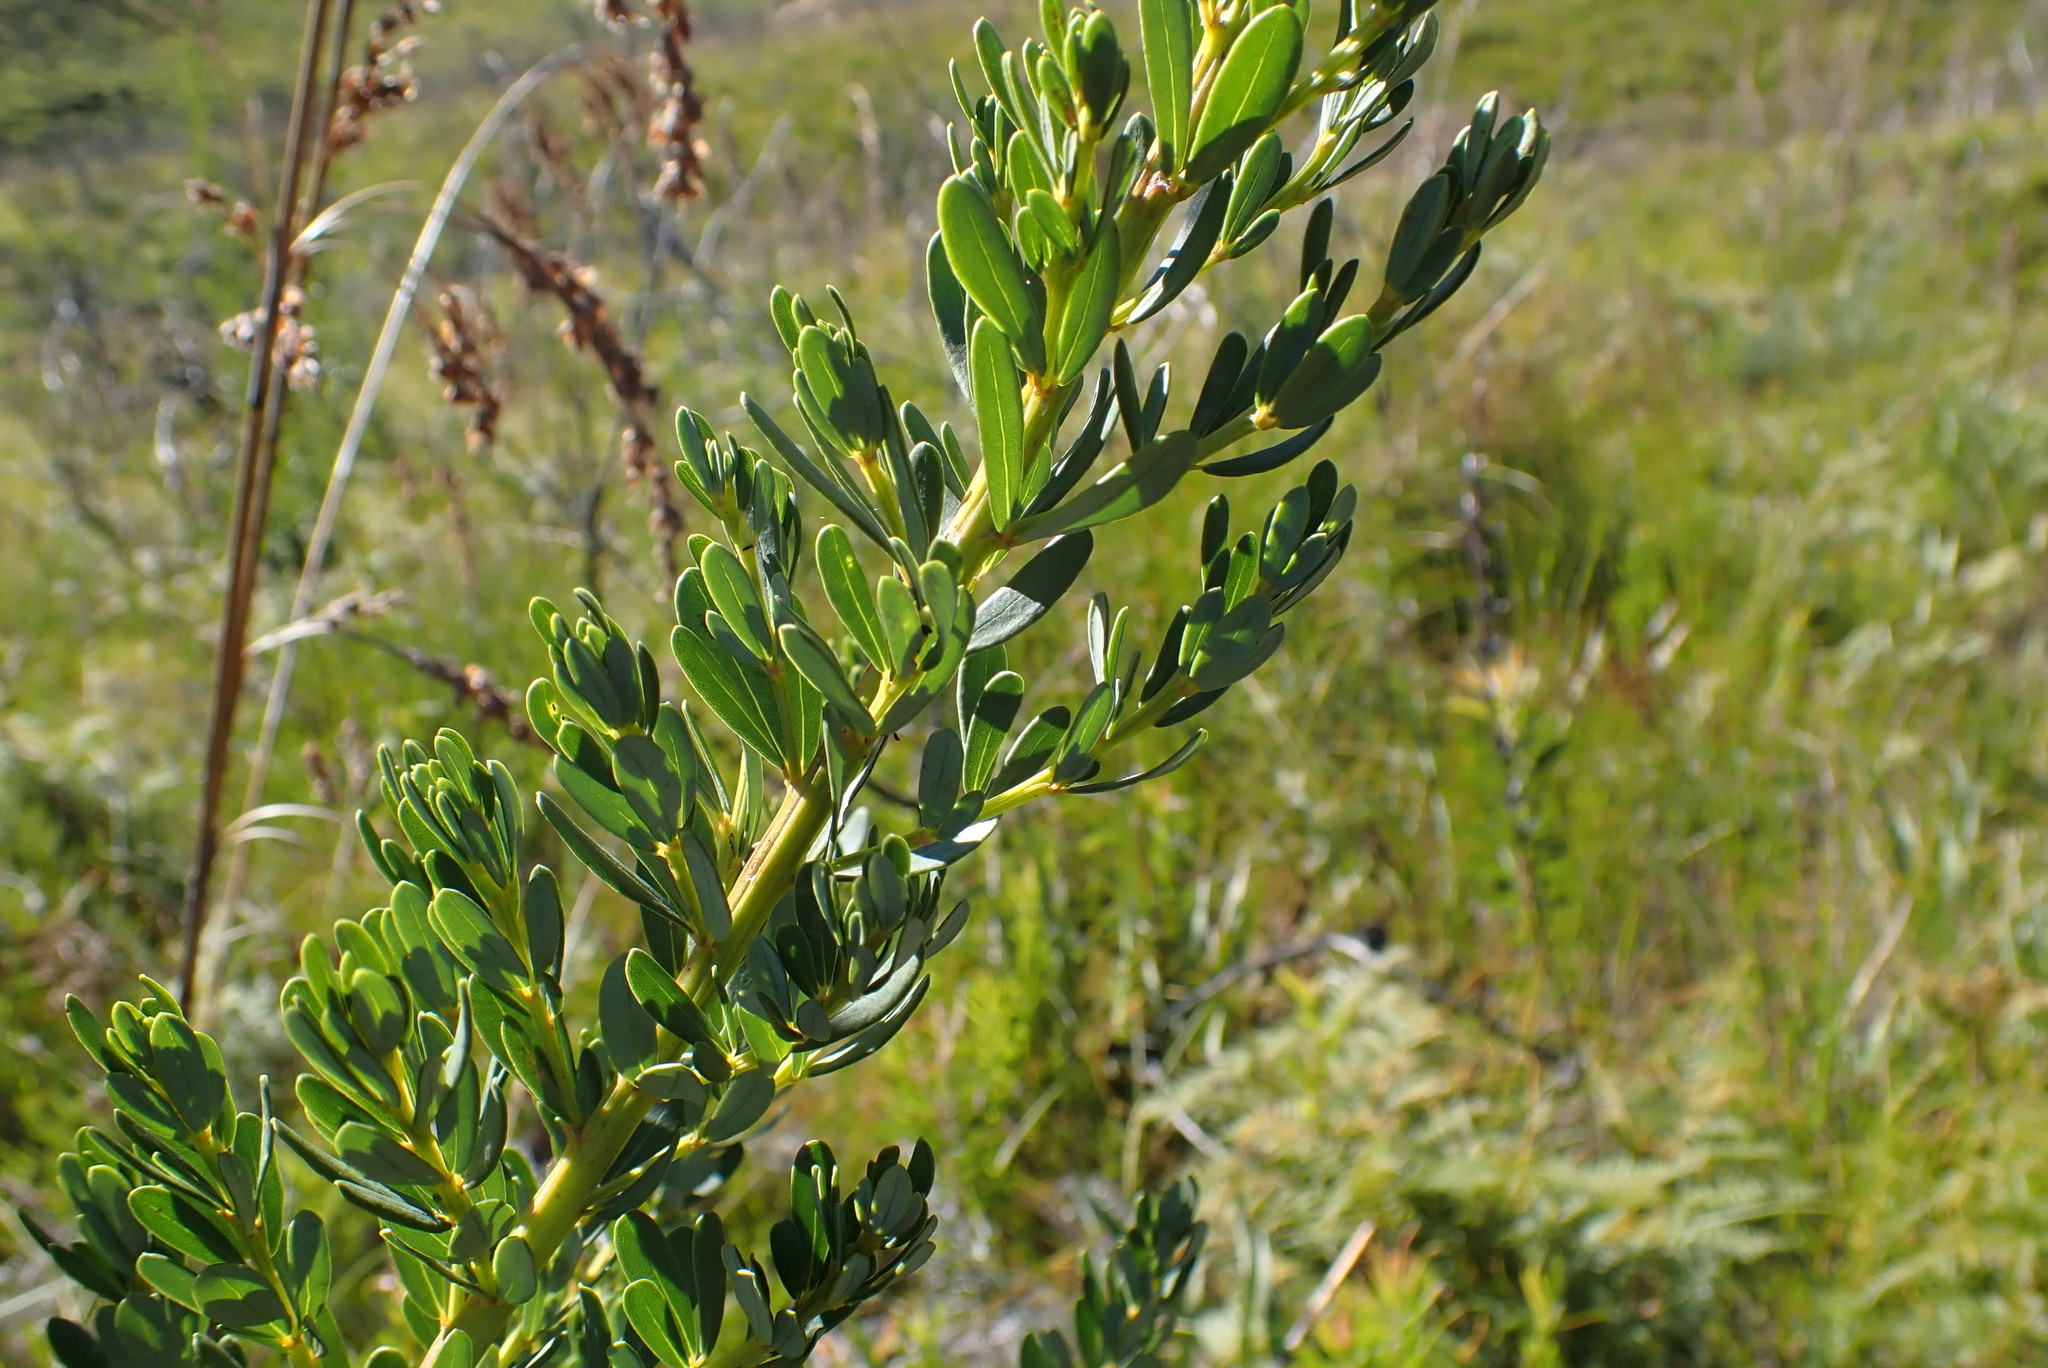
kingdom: Plantae
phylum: Tracheophyta
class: Magnoliopsida
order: Fabales
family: Fabaceae
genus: Cyclopia
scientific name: Cyclopia subternata
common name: Honeybush tea
